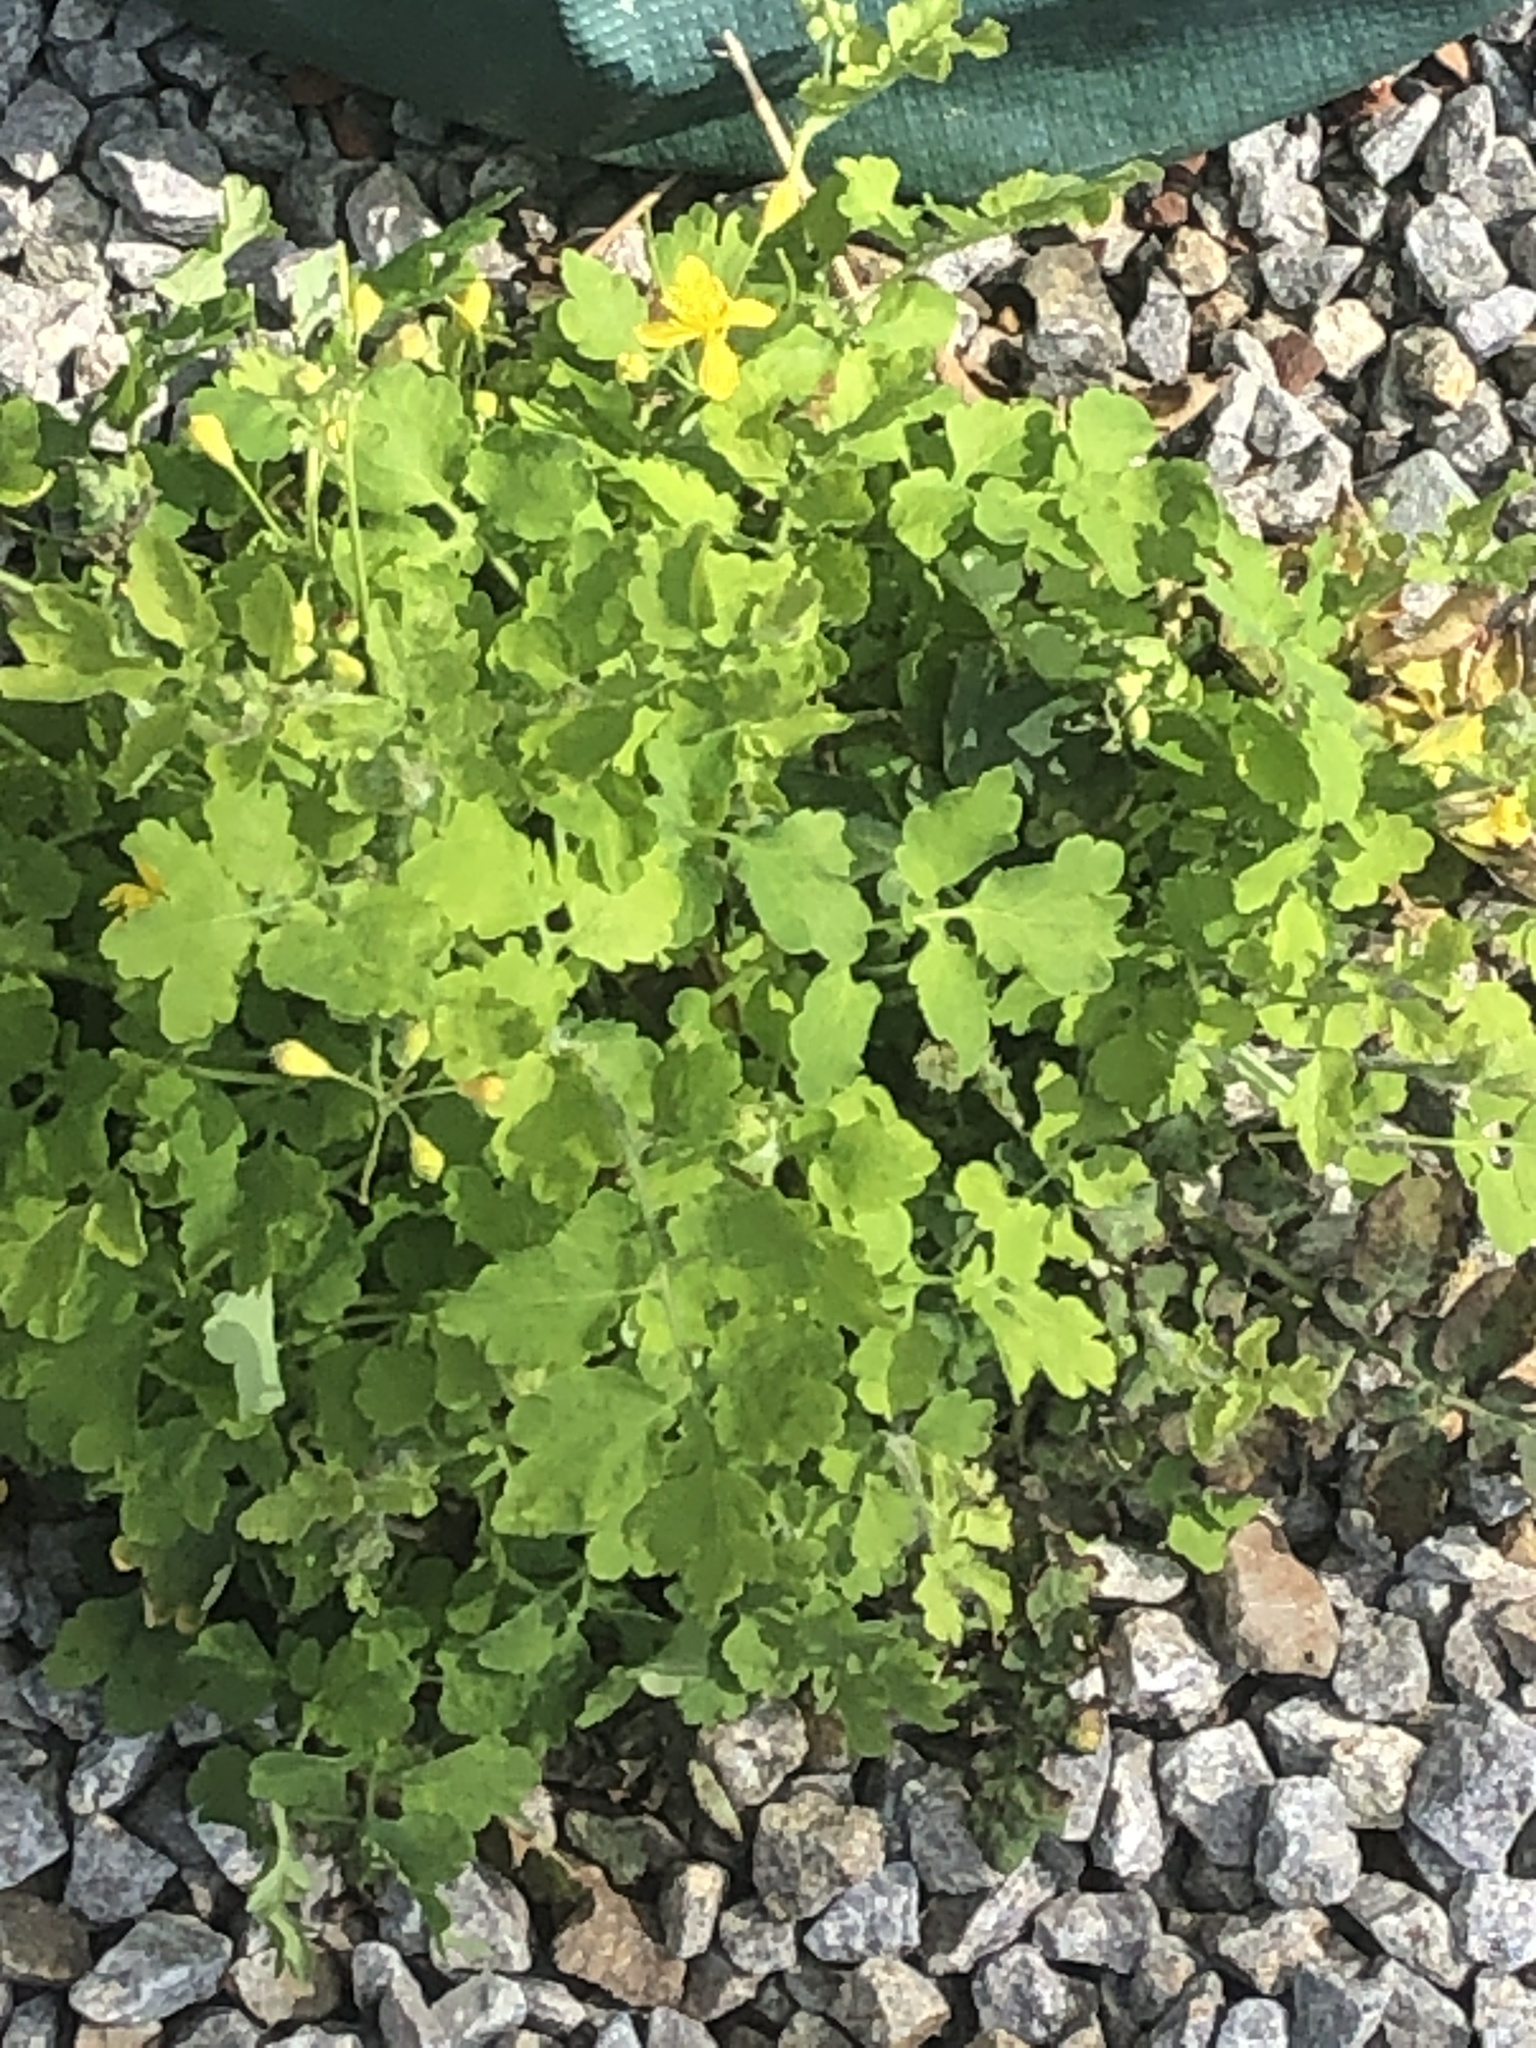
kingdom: Plantae
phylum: Tracheophyta
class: Magnoliopsida
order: Ranunculales
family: Papaveraceae
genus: Chelidonium
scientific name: Chelidonium majus
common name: Greater celandine
